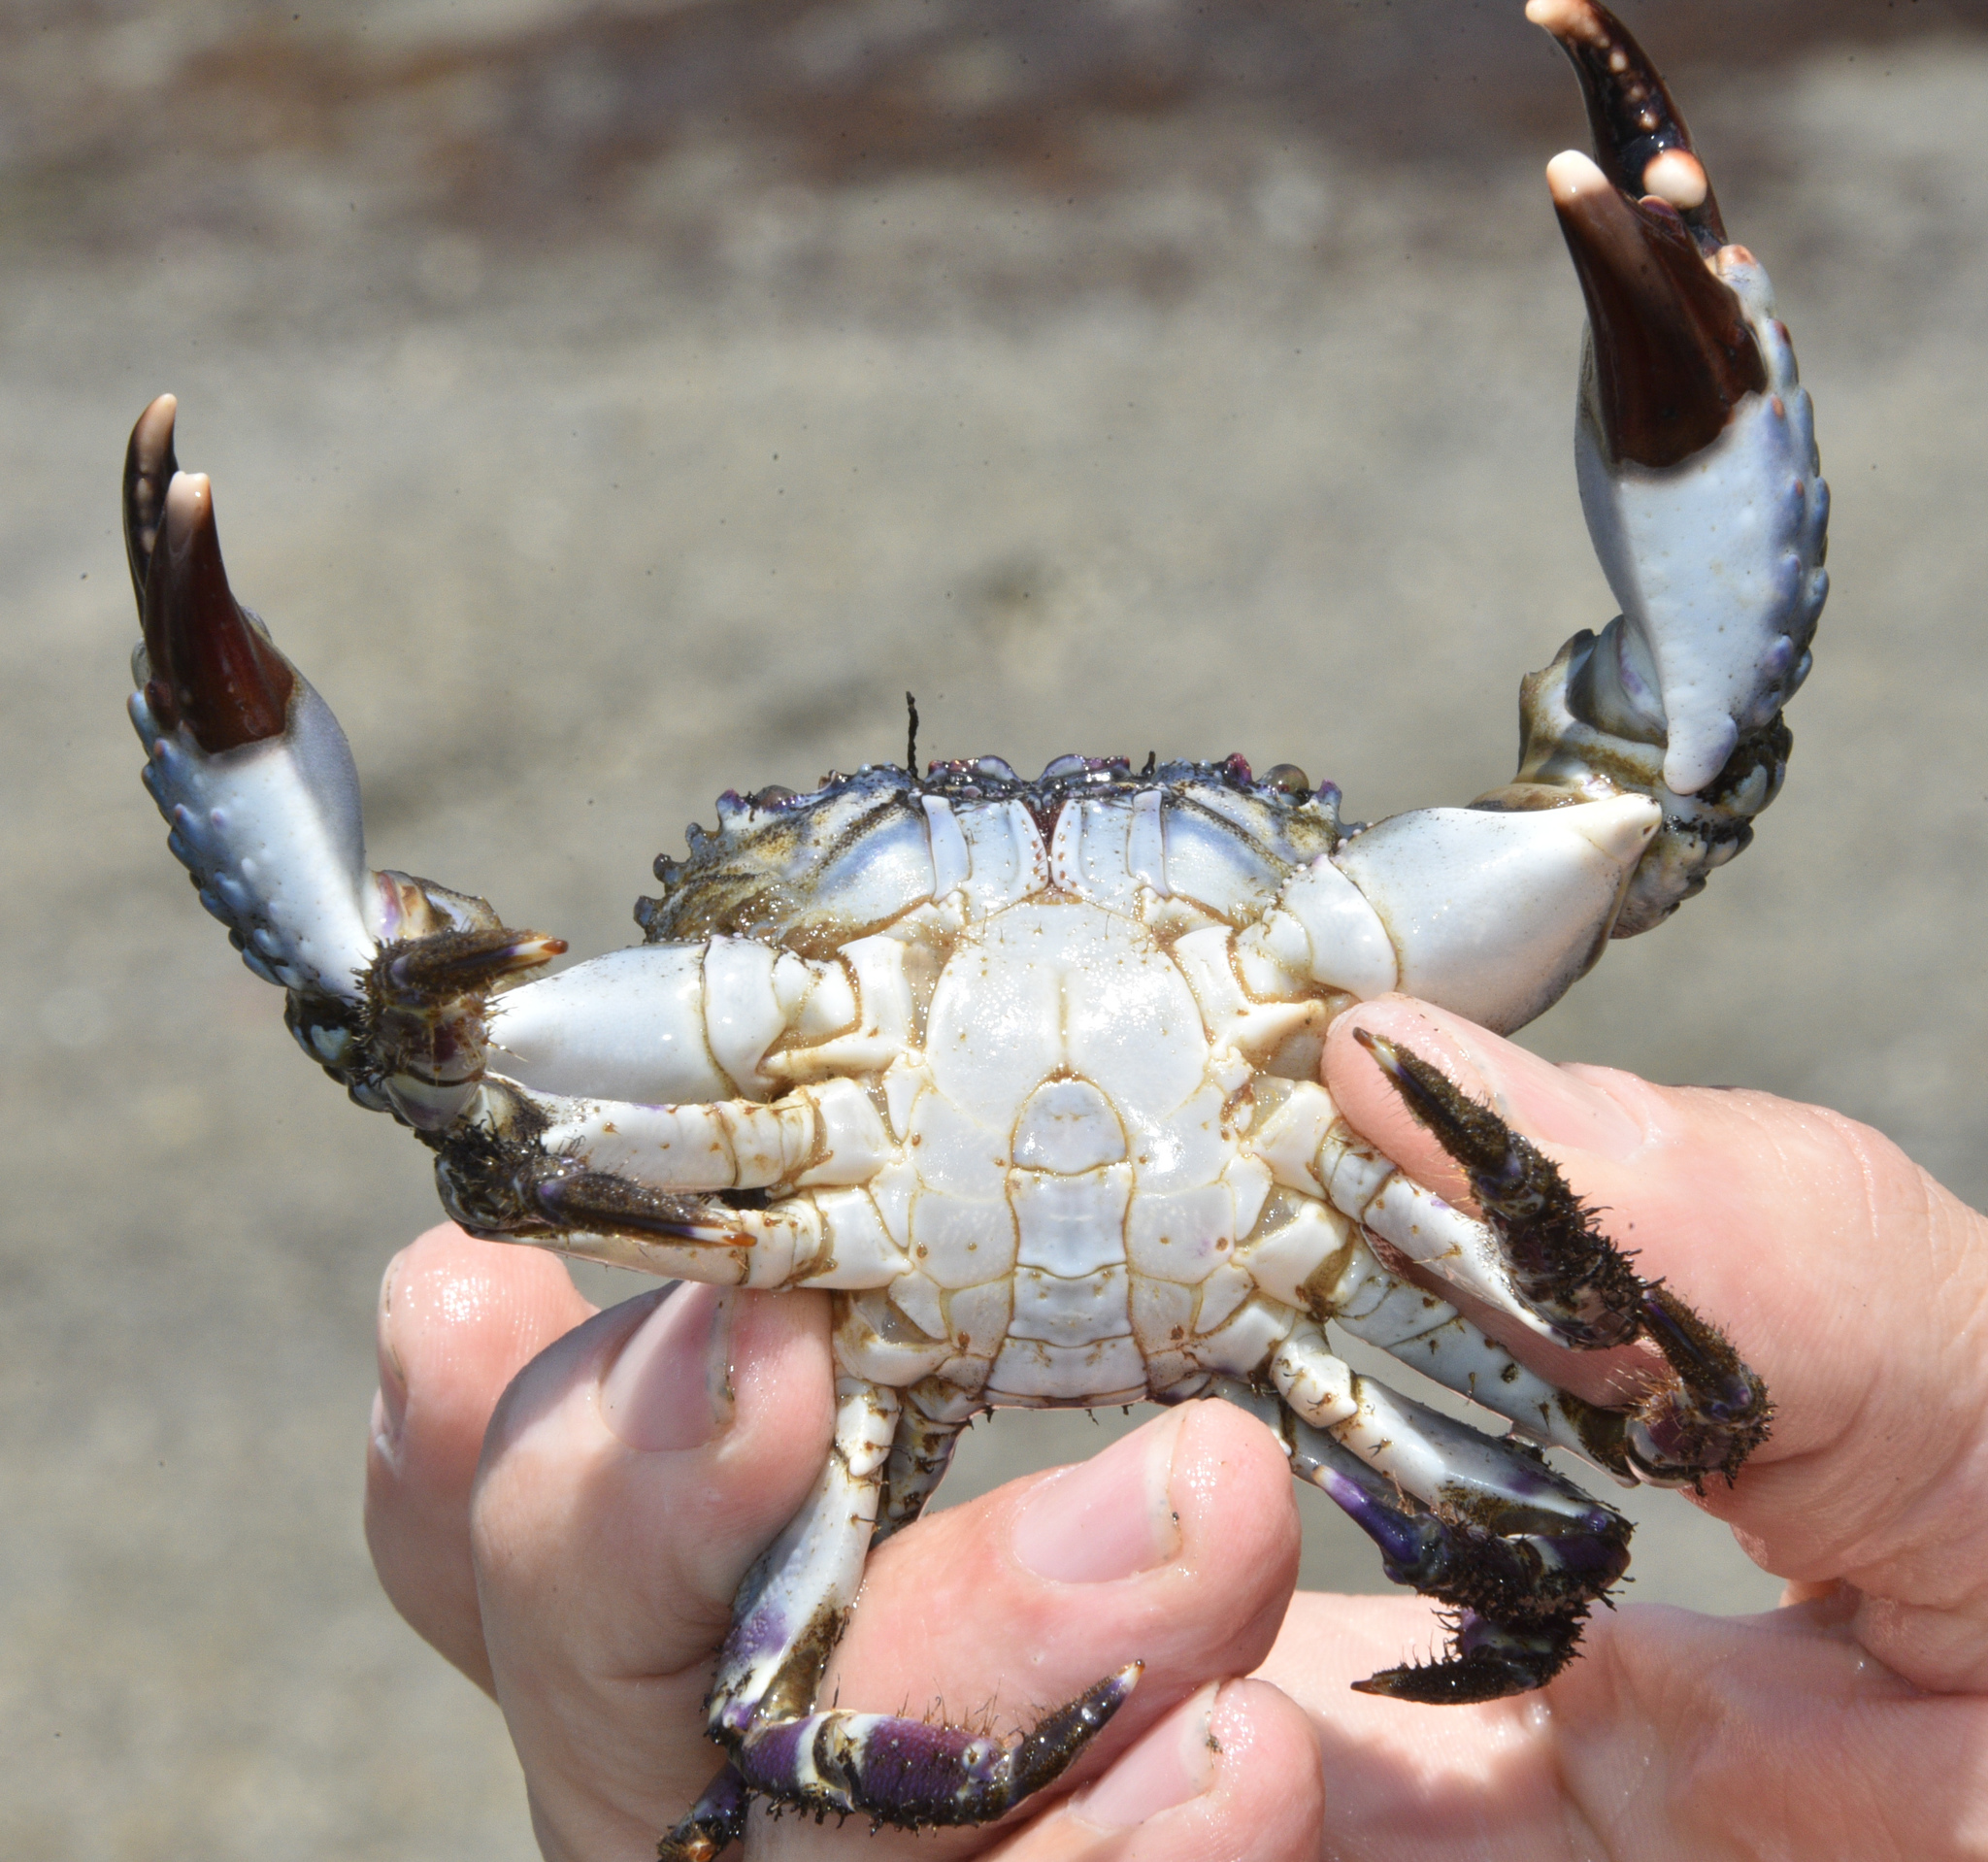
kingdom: Animalia
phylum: Arthropoda
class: Malacostraca
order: Decapoda
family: Eriphiidae
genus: Eriphia
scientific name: Eriphia squamata
